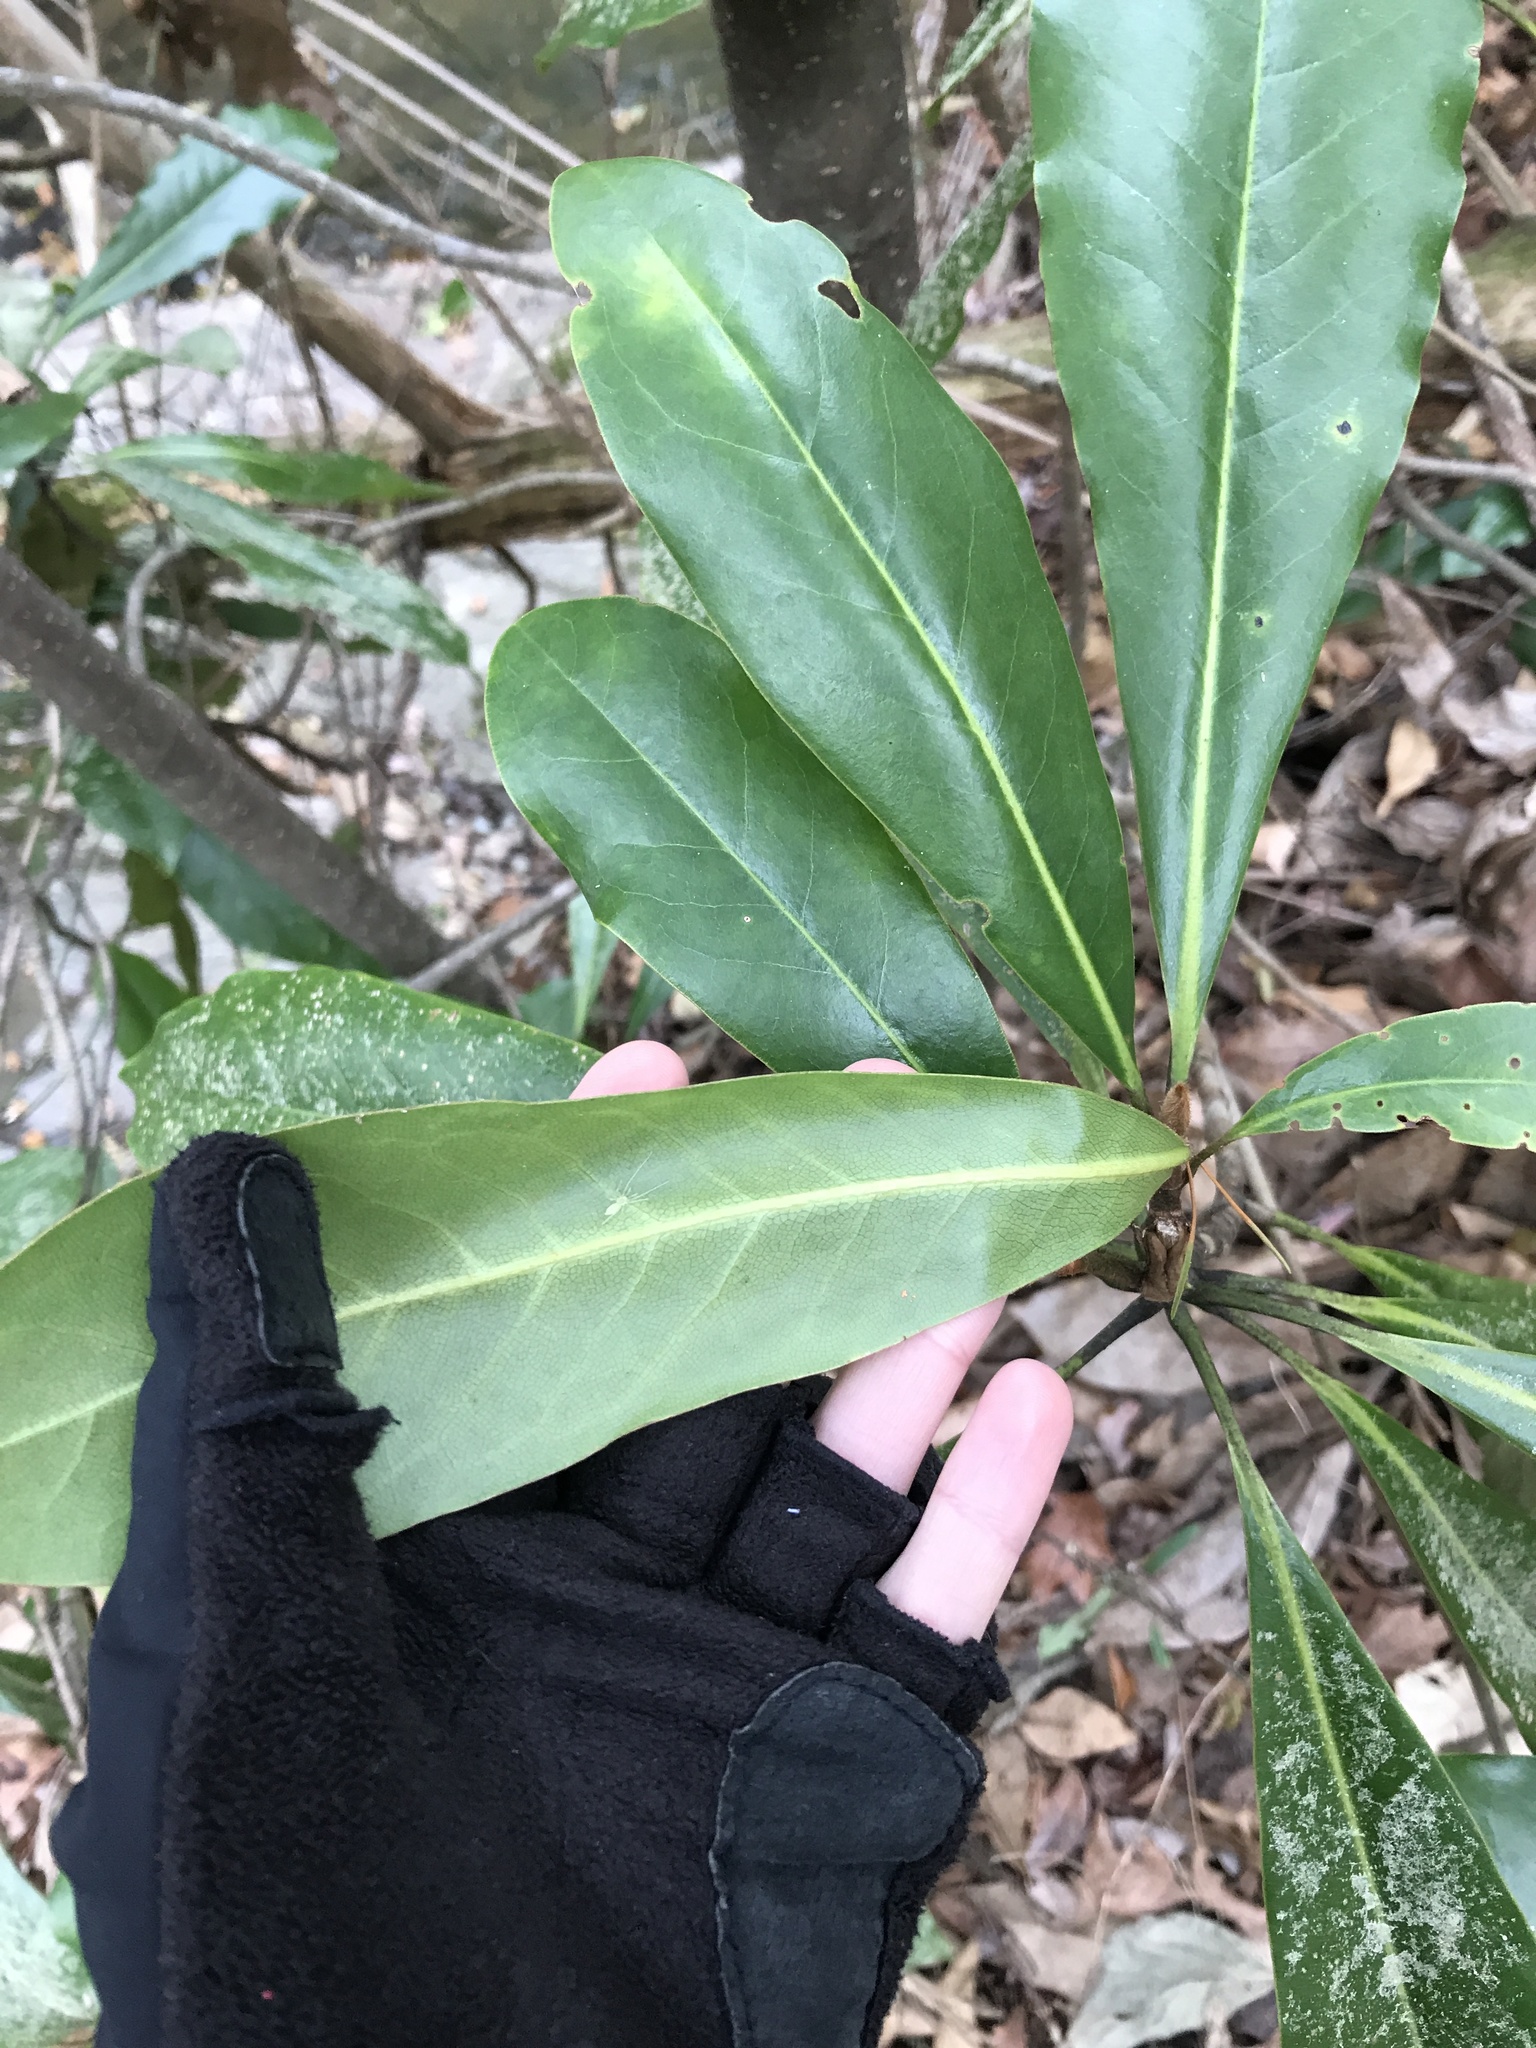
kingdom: Plantae
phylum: Tracheophyta
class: Magnoliopsida
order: Magnoliales
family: Magnoliaceae
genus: Magnolia
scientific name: Magnolia grandiflora
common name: Southern magnolia
